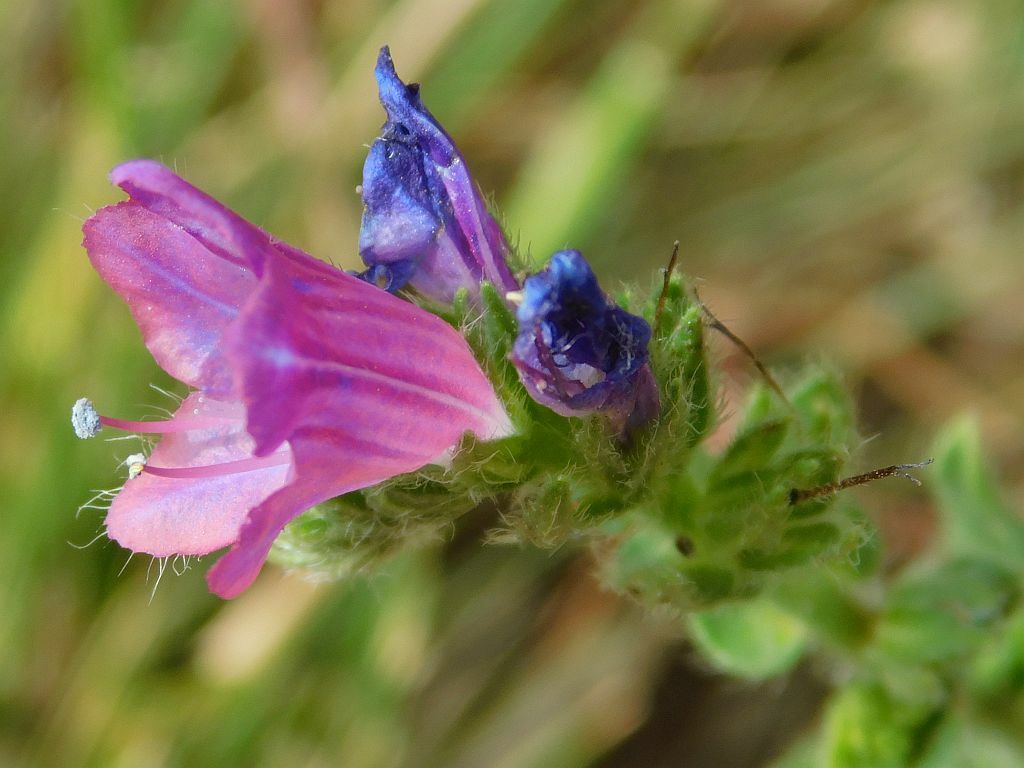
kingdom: Plantae
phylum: Tracheophyta
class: Magnoliopsida
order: Boraginales
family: Boraginaceae
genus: Echium
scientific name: Echium plantagineum
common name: Purple viper's-bugloss
